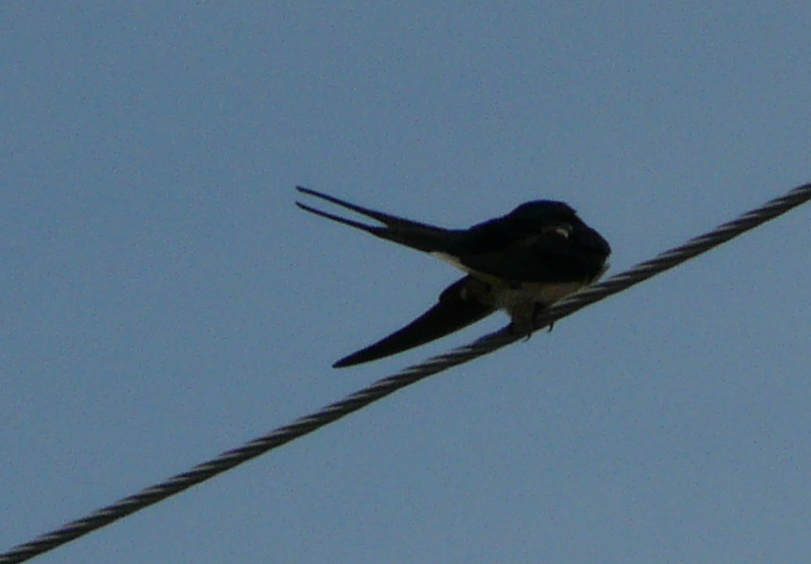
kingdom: Animalia
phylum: Chordata
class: Aves
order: Passeriformes
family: Hirundinidae
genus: Hirundo
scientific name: Hirundo rustica
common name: Barn swallow
